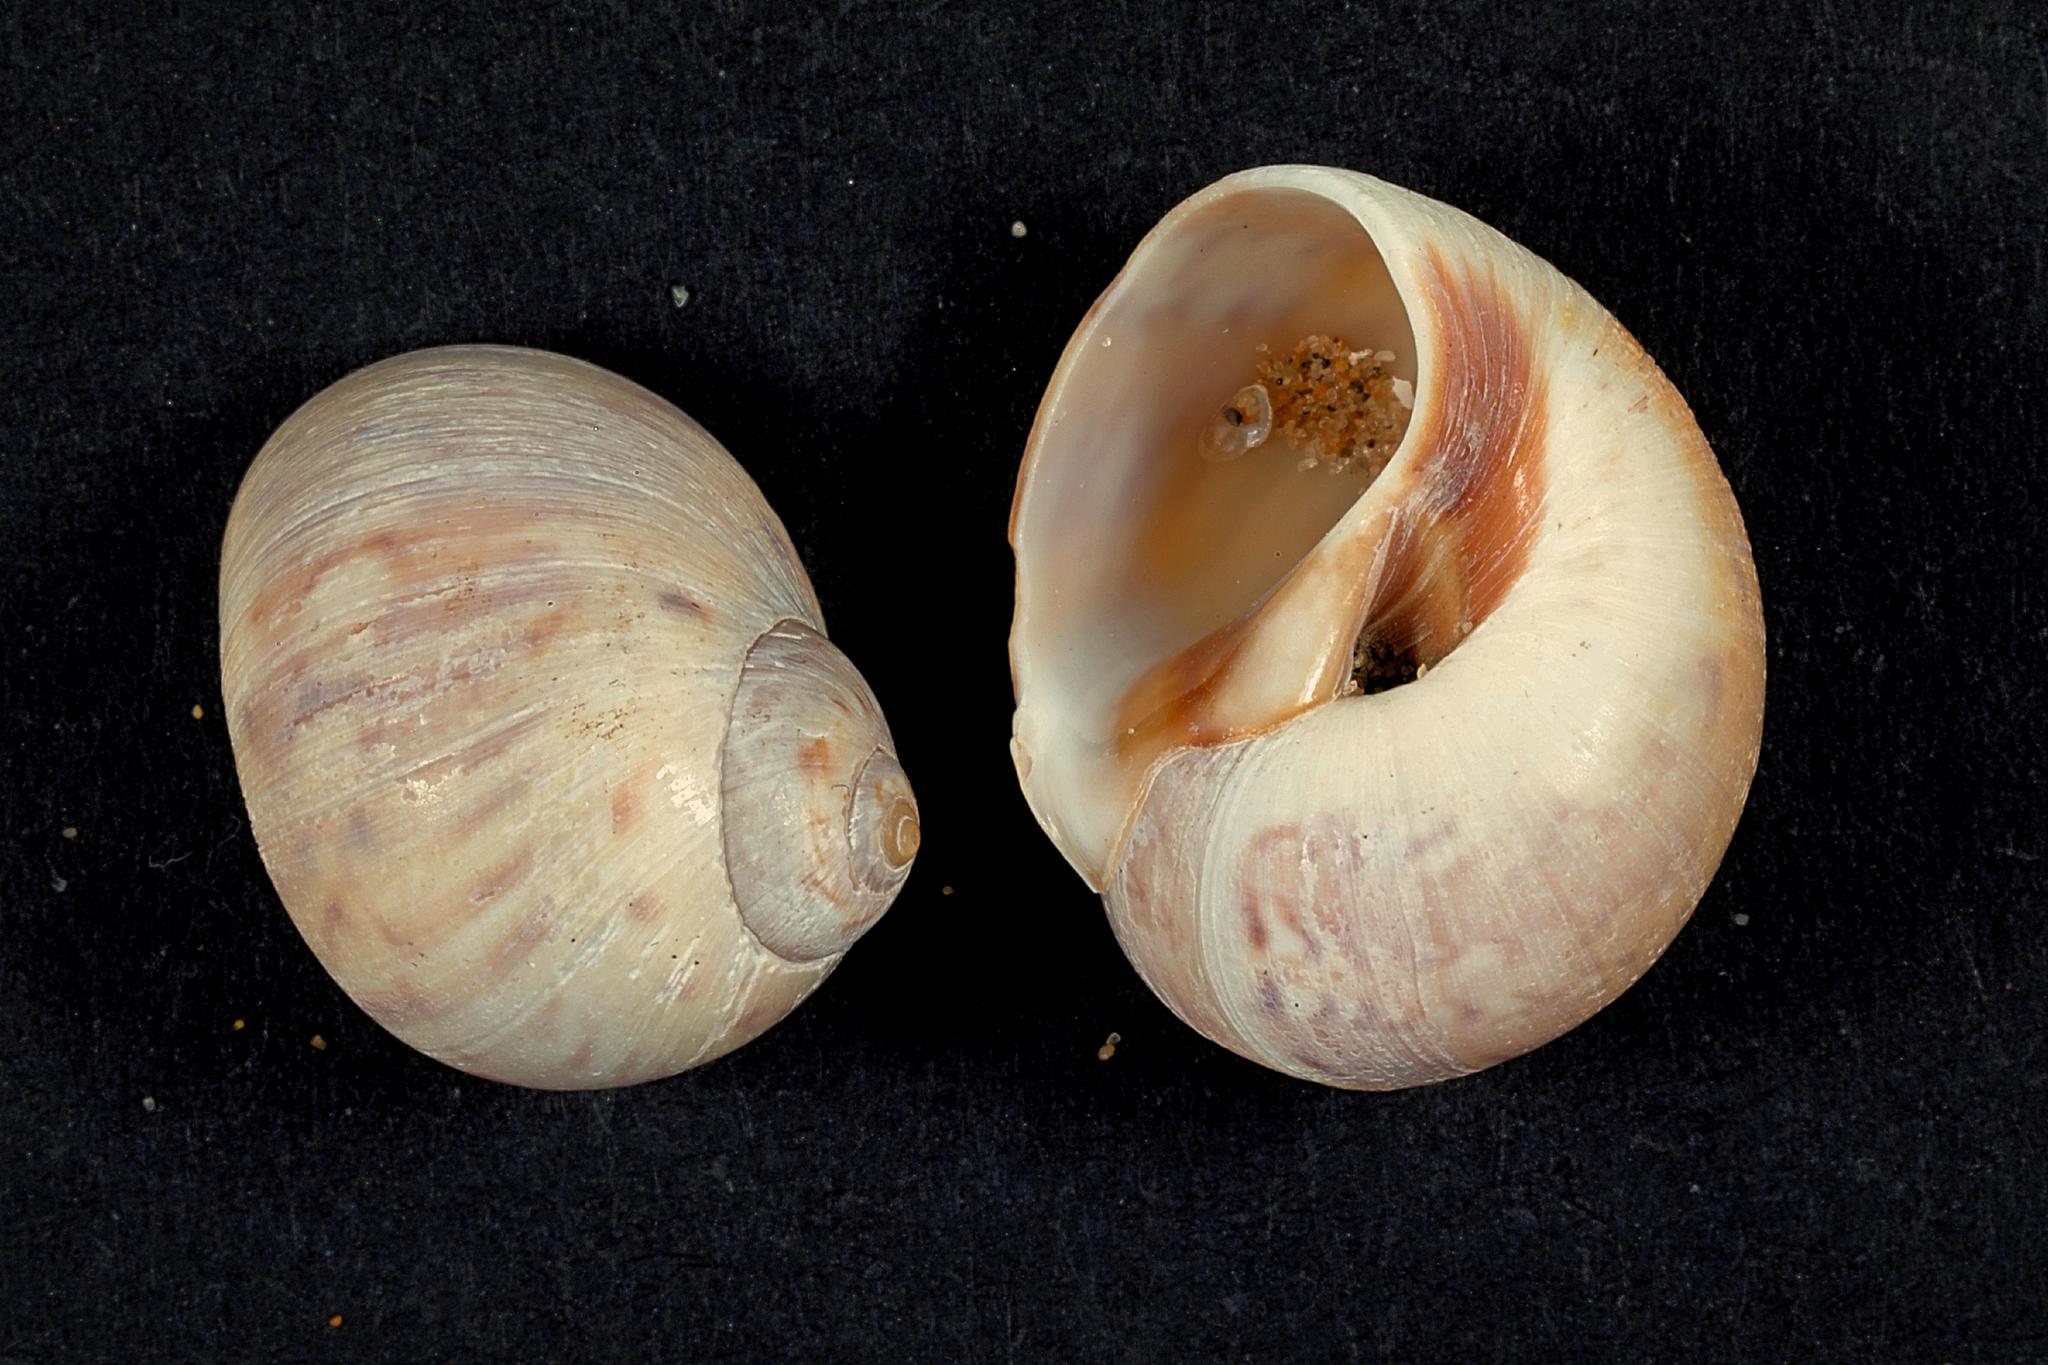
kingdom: Animalia
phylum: Mollusca
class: Gastropoda
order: Littorinimorpha
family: Naticidae
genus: Euspira
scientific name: Euspira nitida
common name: Alder's necklace shell
